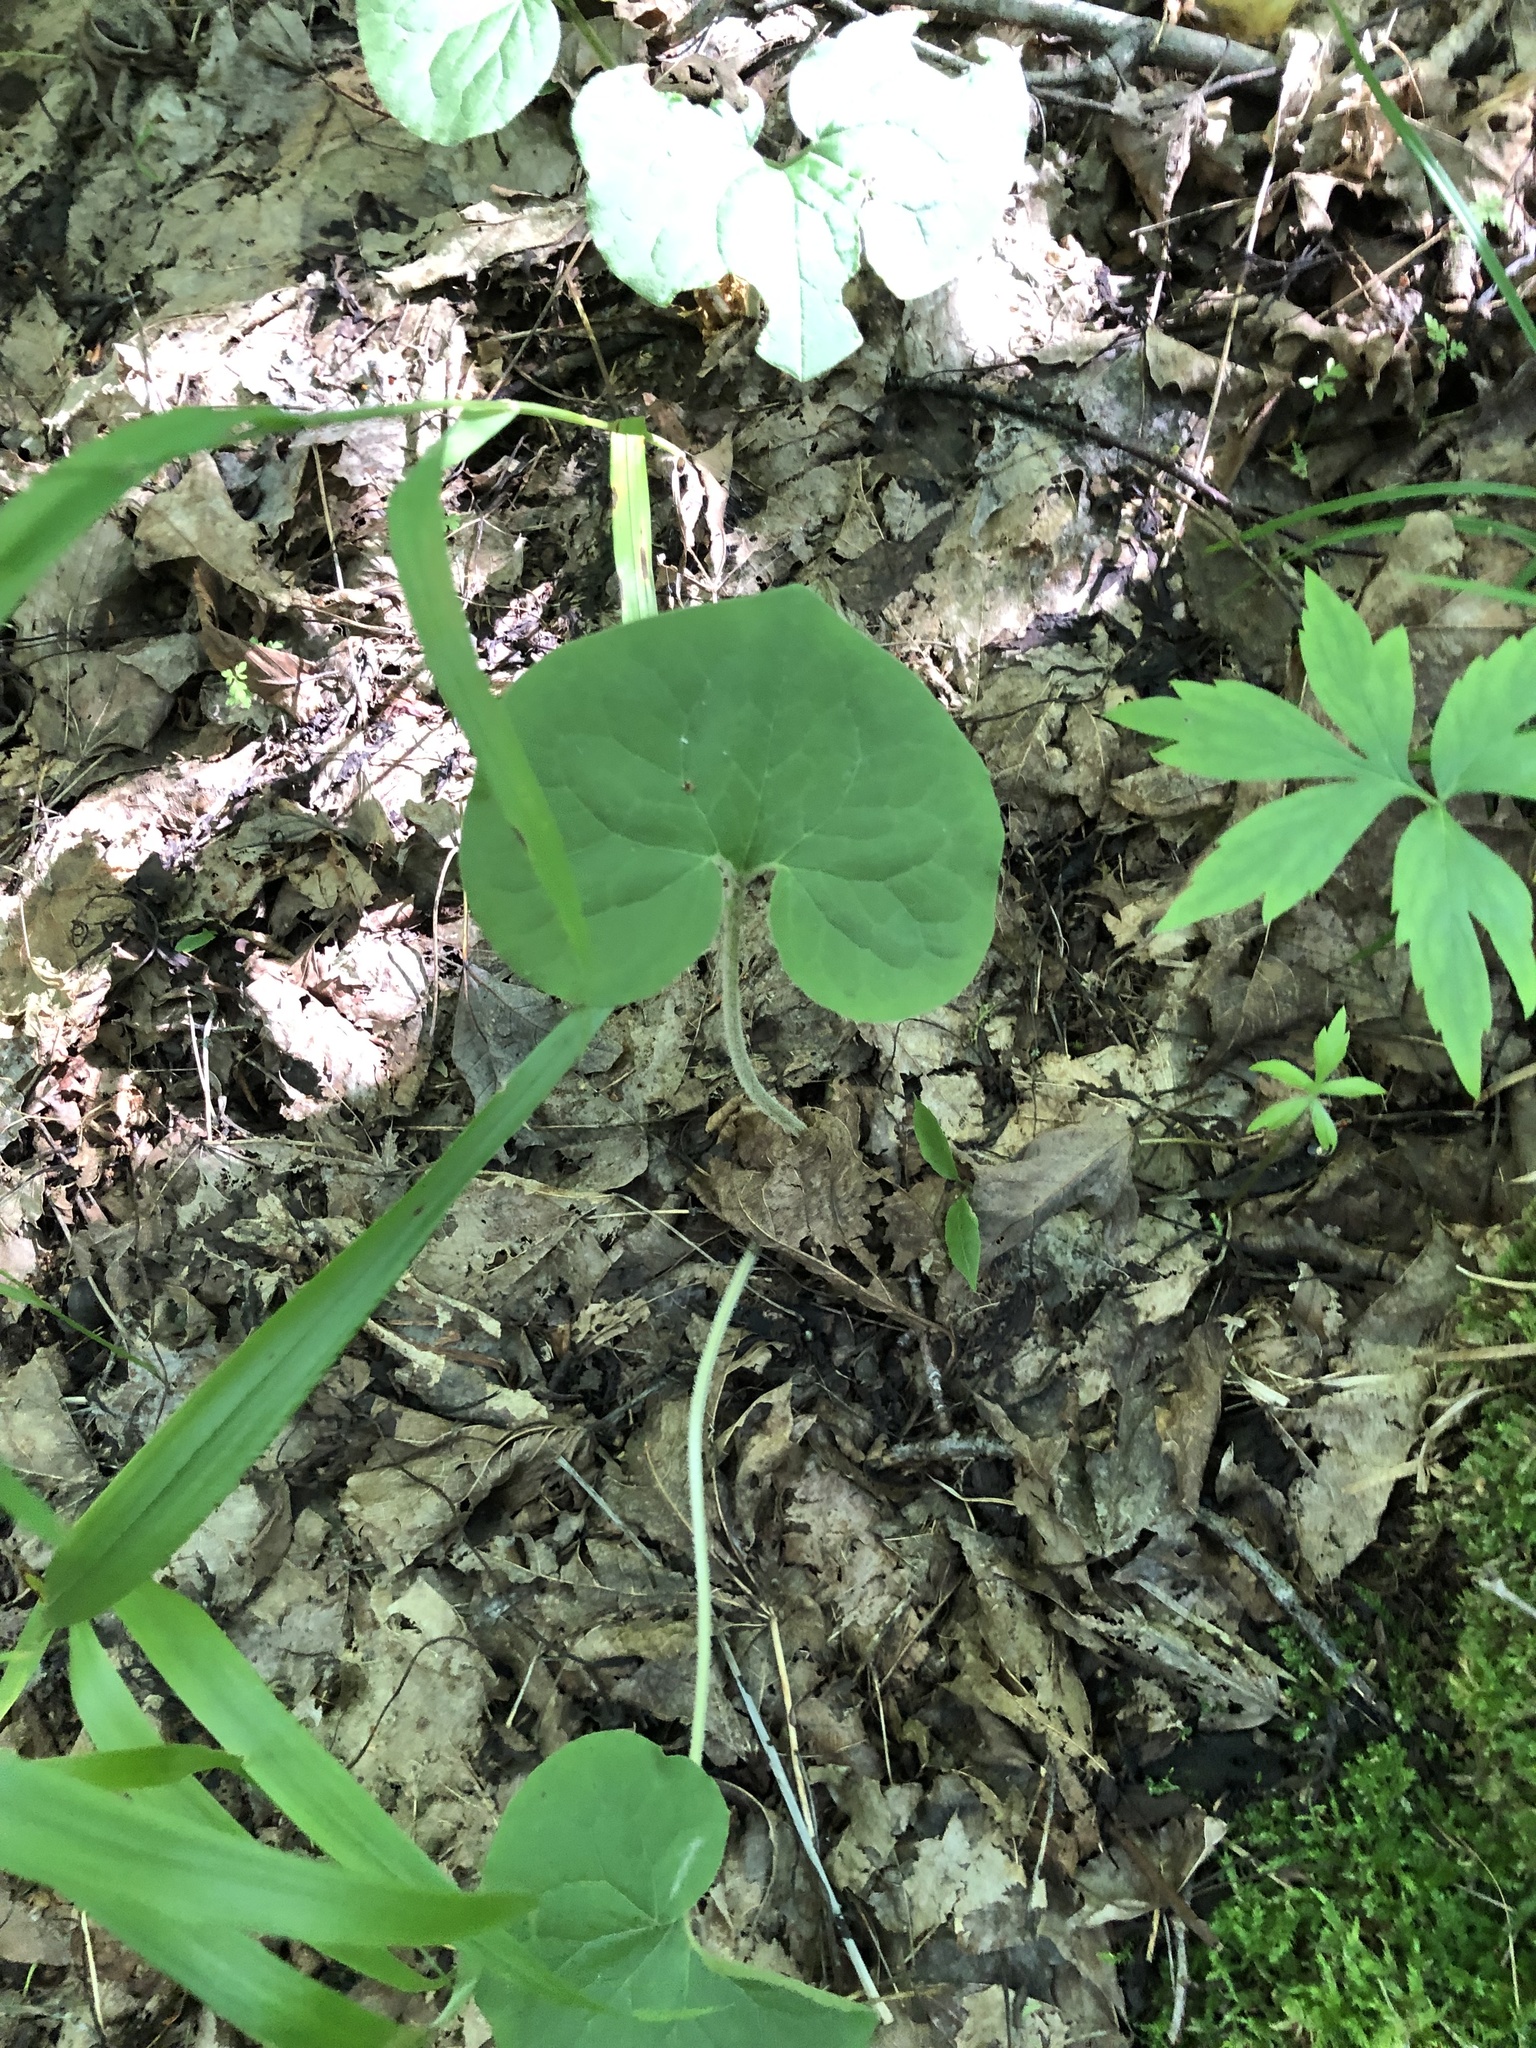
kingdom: Plantae
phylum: Tracheophyta
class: Magnoliopsida
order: Piperales
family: Aristolochiaceae
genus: Asarum
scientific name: Asarum canadense
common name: Wild ginger
